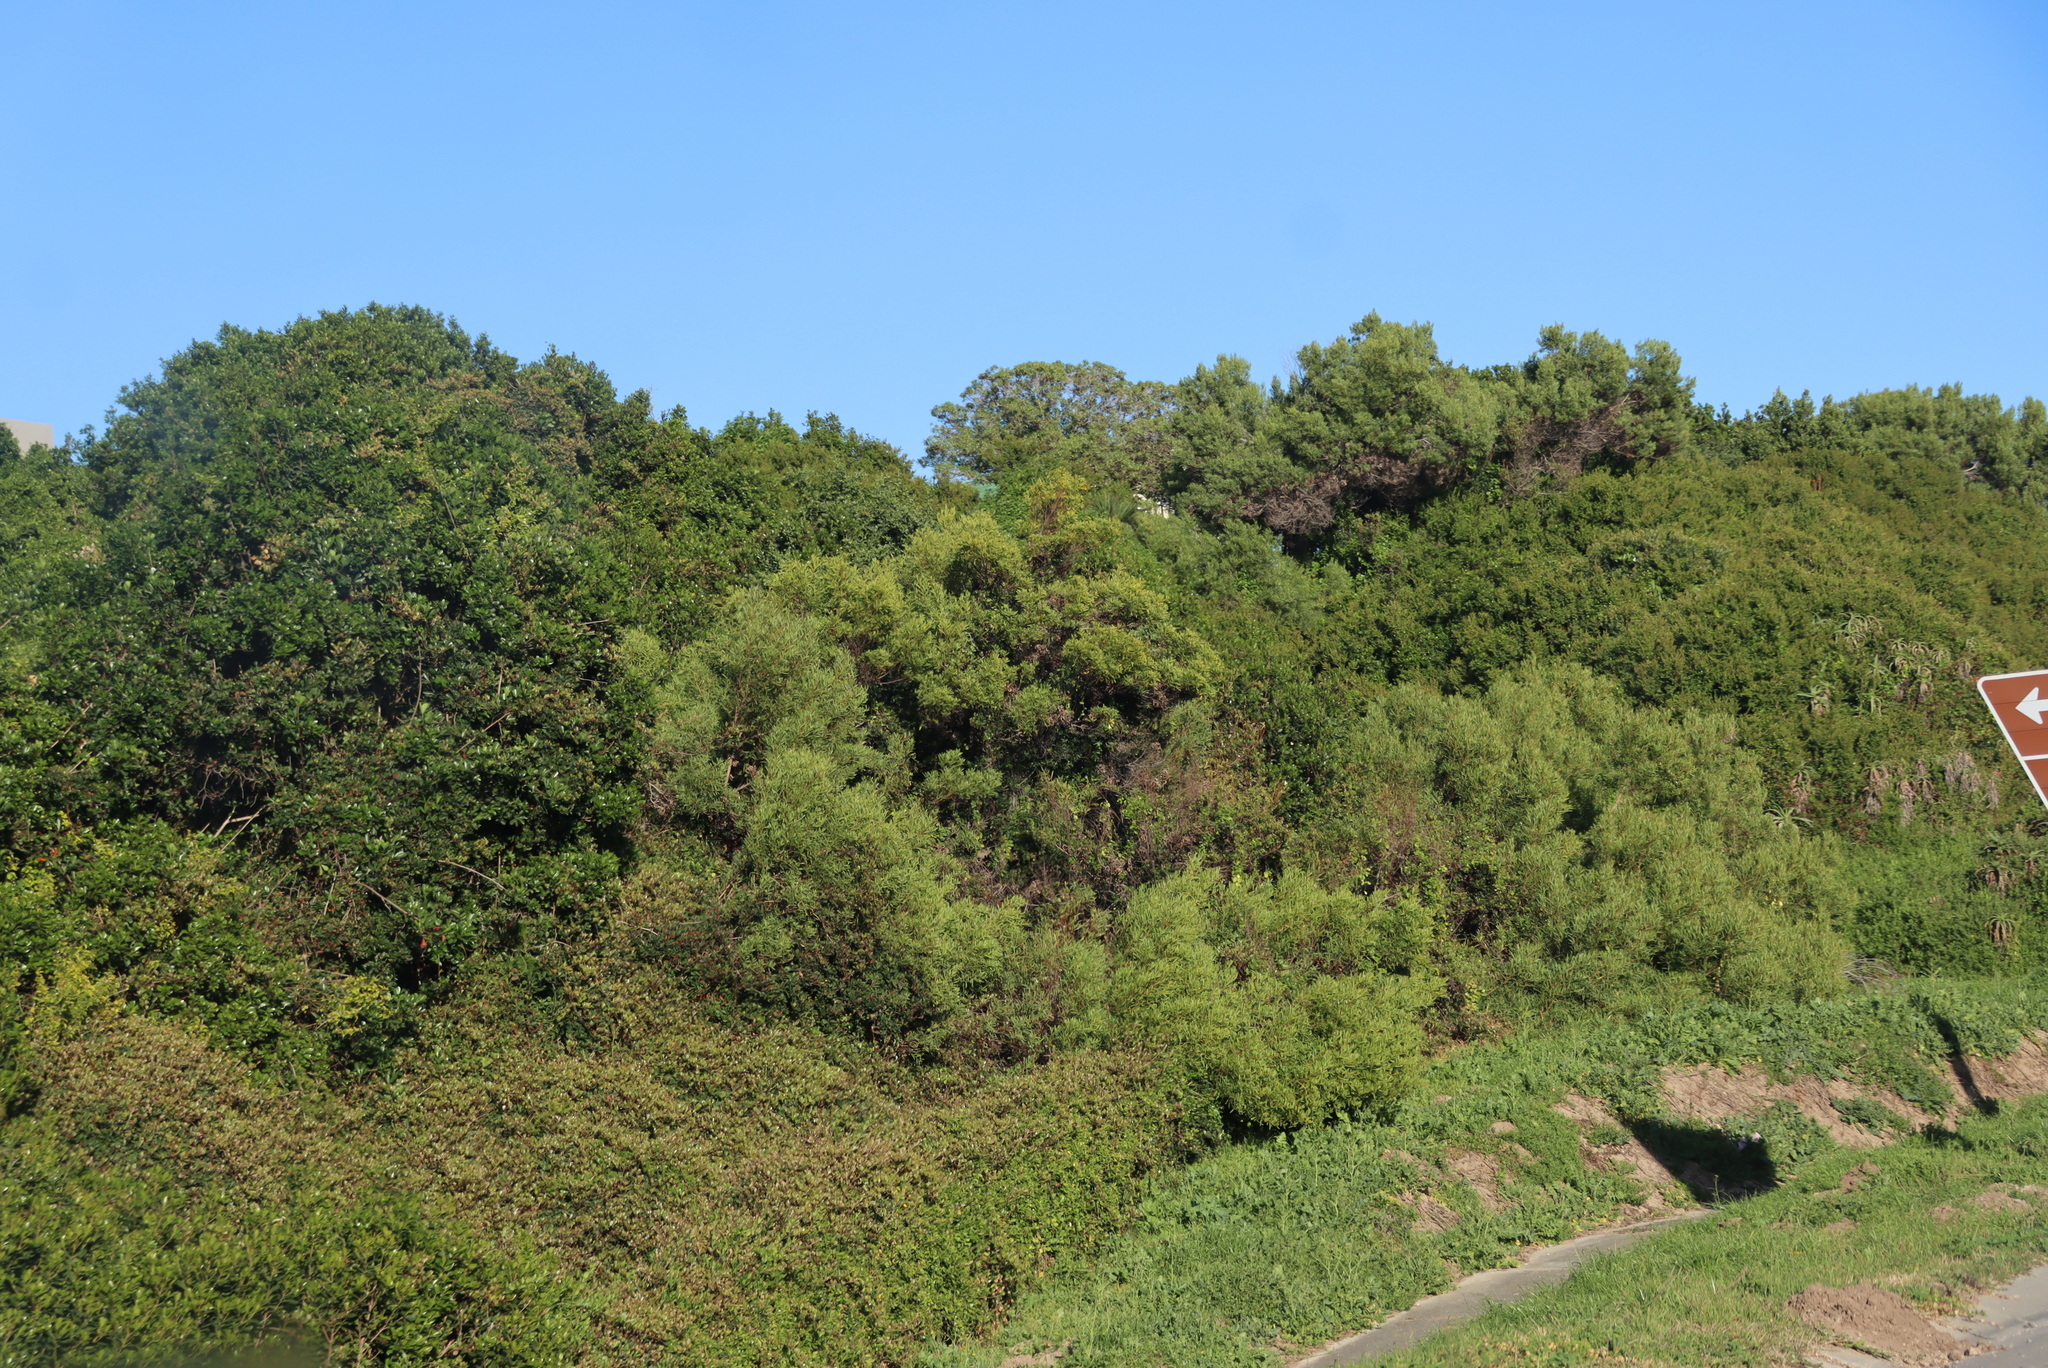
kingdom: Plantae
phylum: Tracheophyta
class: Magnoliopsida
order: Fabales
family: Fabaceae
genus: Acacia
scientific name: Acacia cyclops
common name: Coastal wattle
